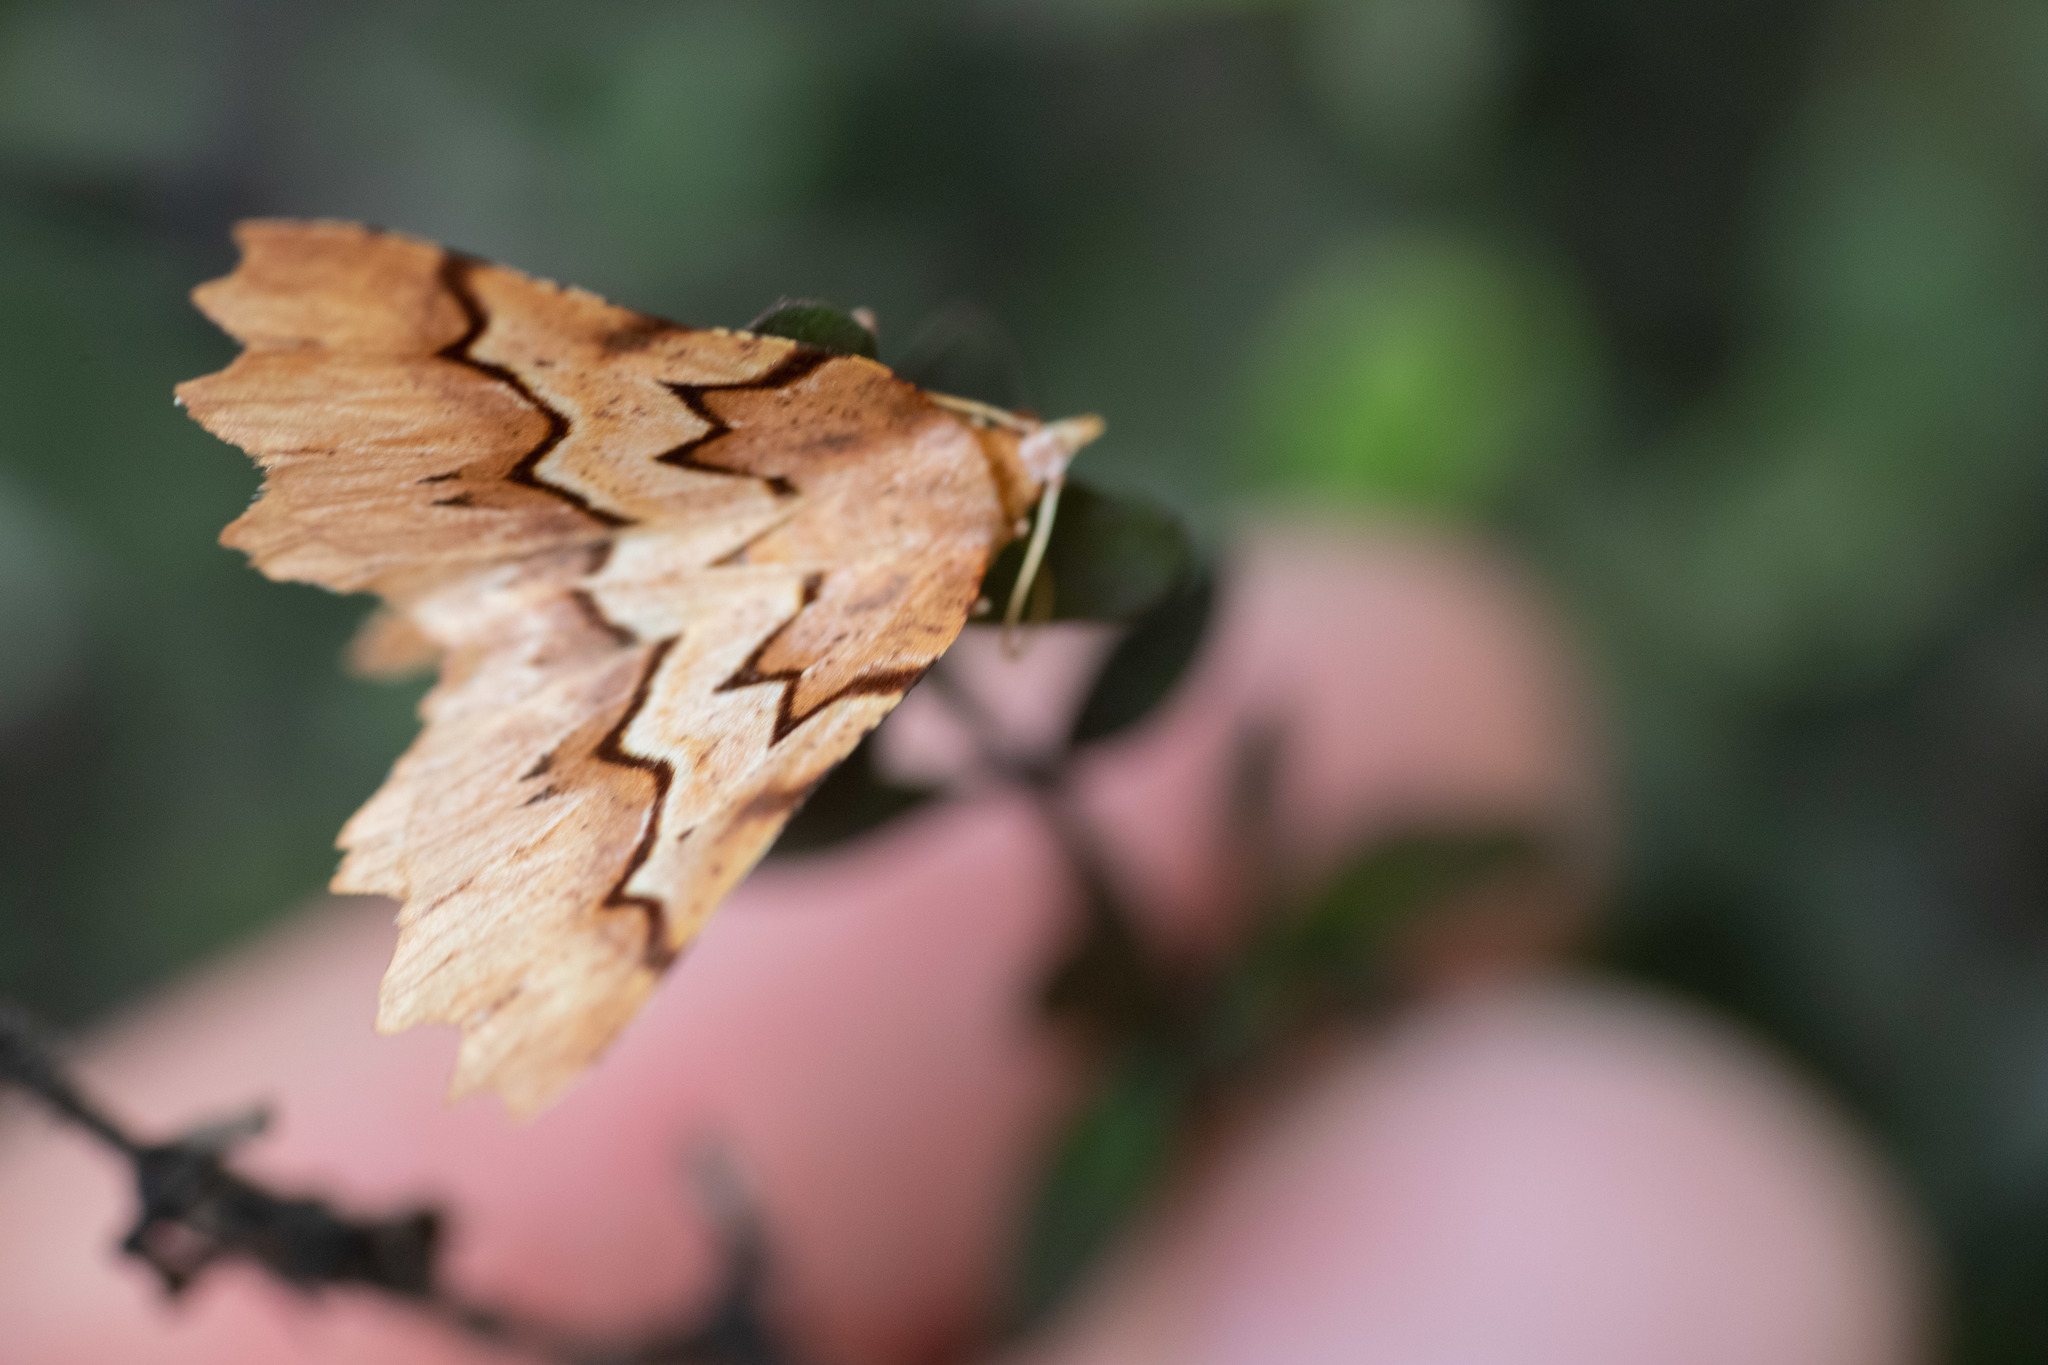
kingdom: Animalia
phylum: Arthropoda
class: Insecta
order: Lepidoptera
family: Geometridae
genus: Ischalis
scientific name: Ischalis fortinata
